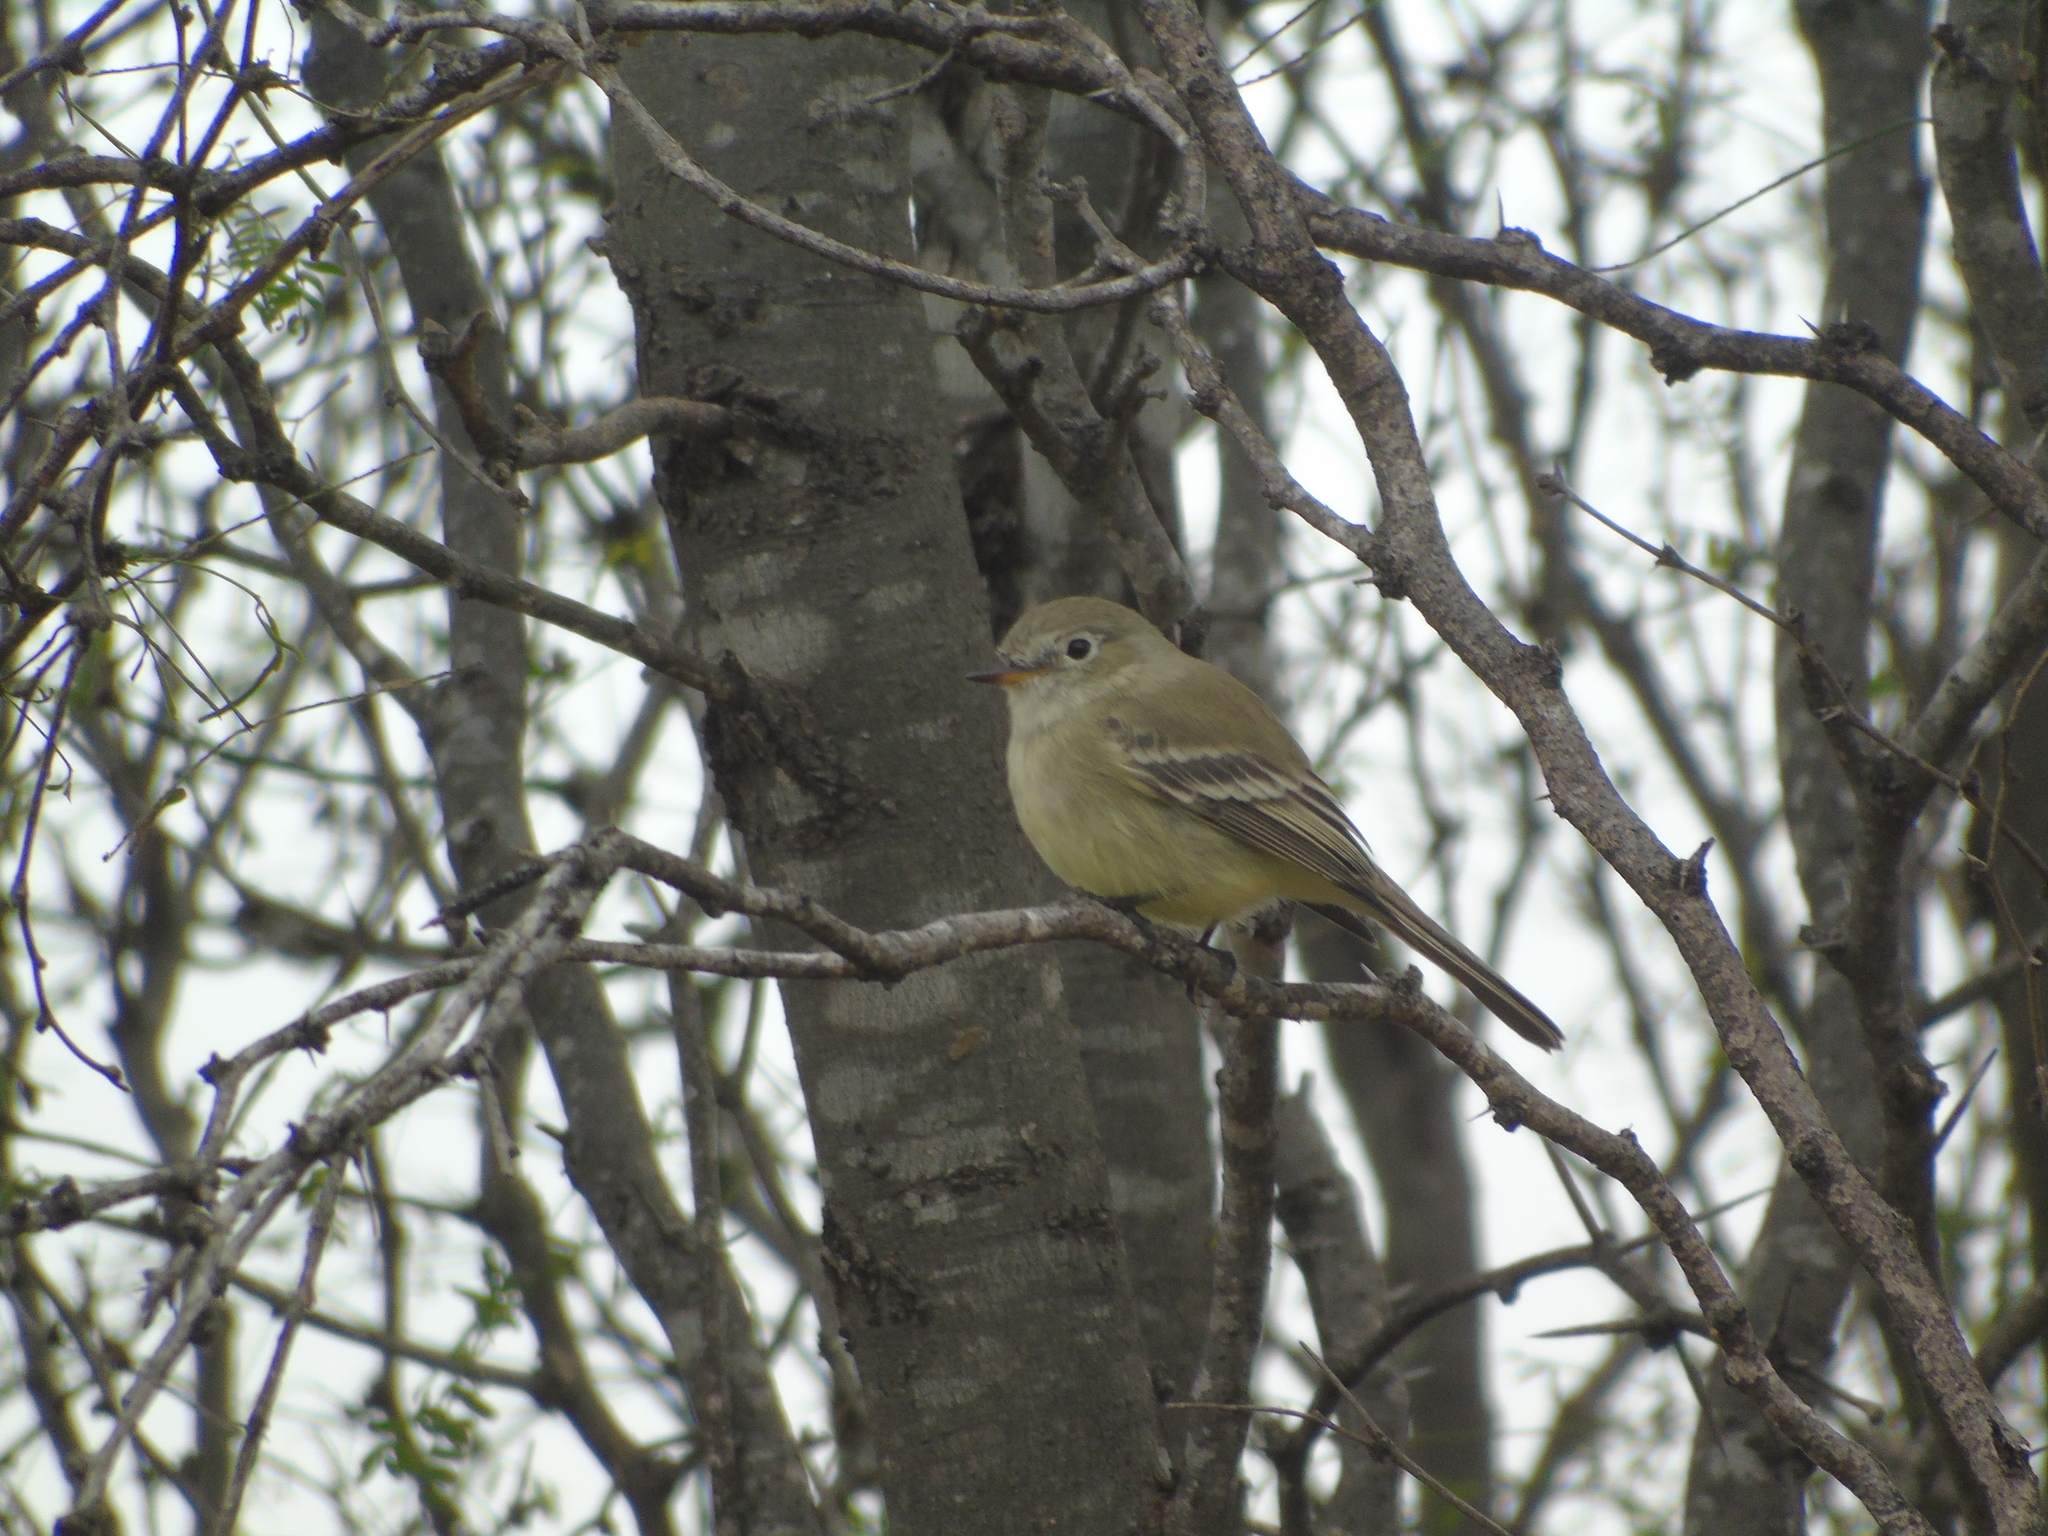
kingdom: Animalia
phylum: Chordata
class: Aves
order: Passeriformes
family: Tyrannidae
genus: Empidonax
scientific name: Empidonax wrightii
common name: Gray flycatcher
